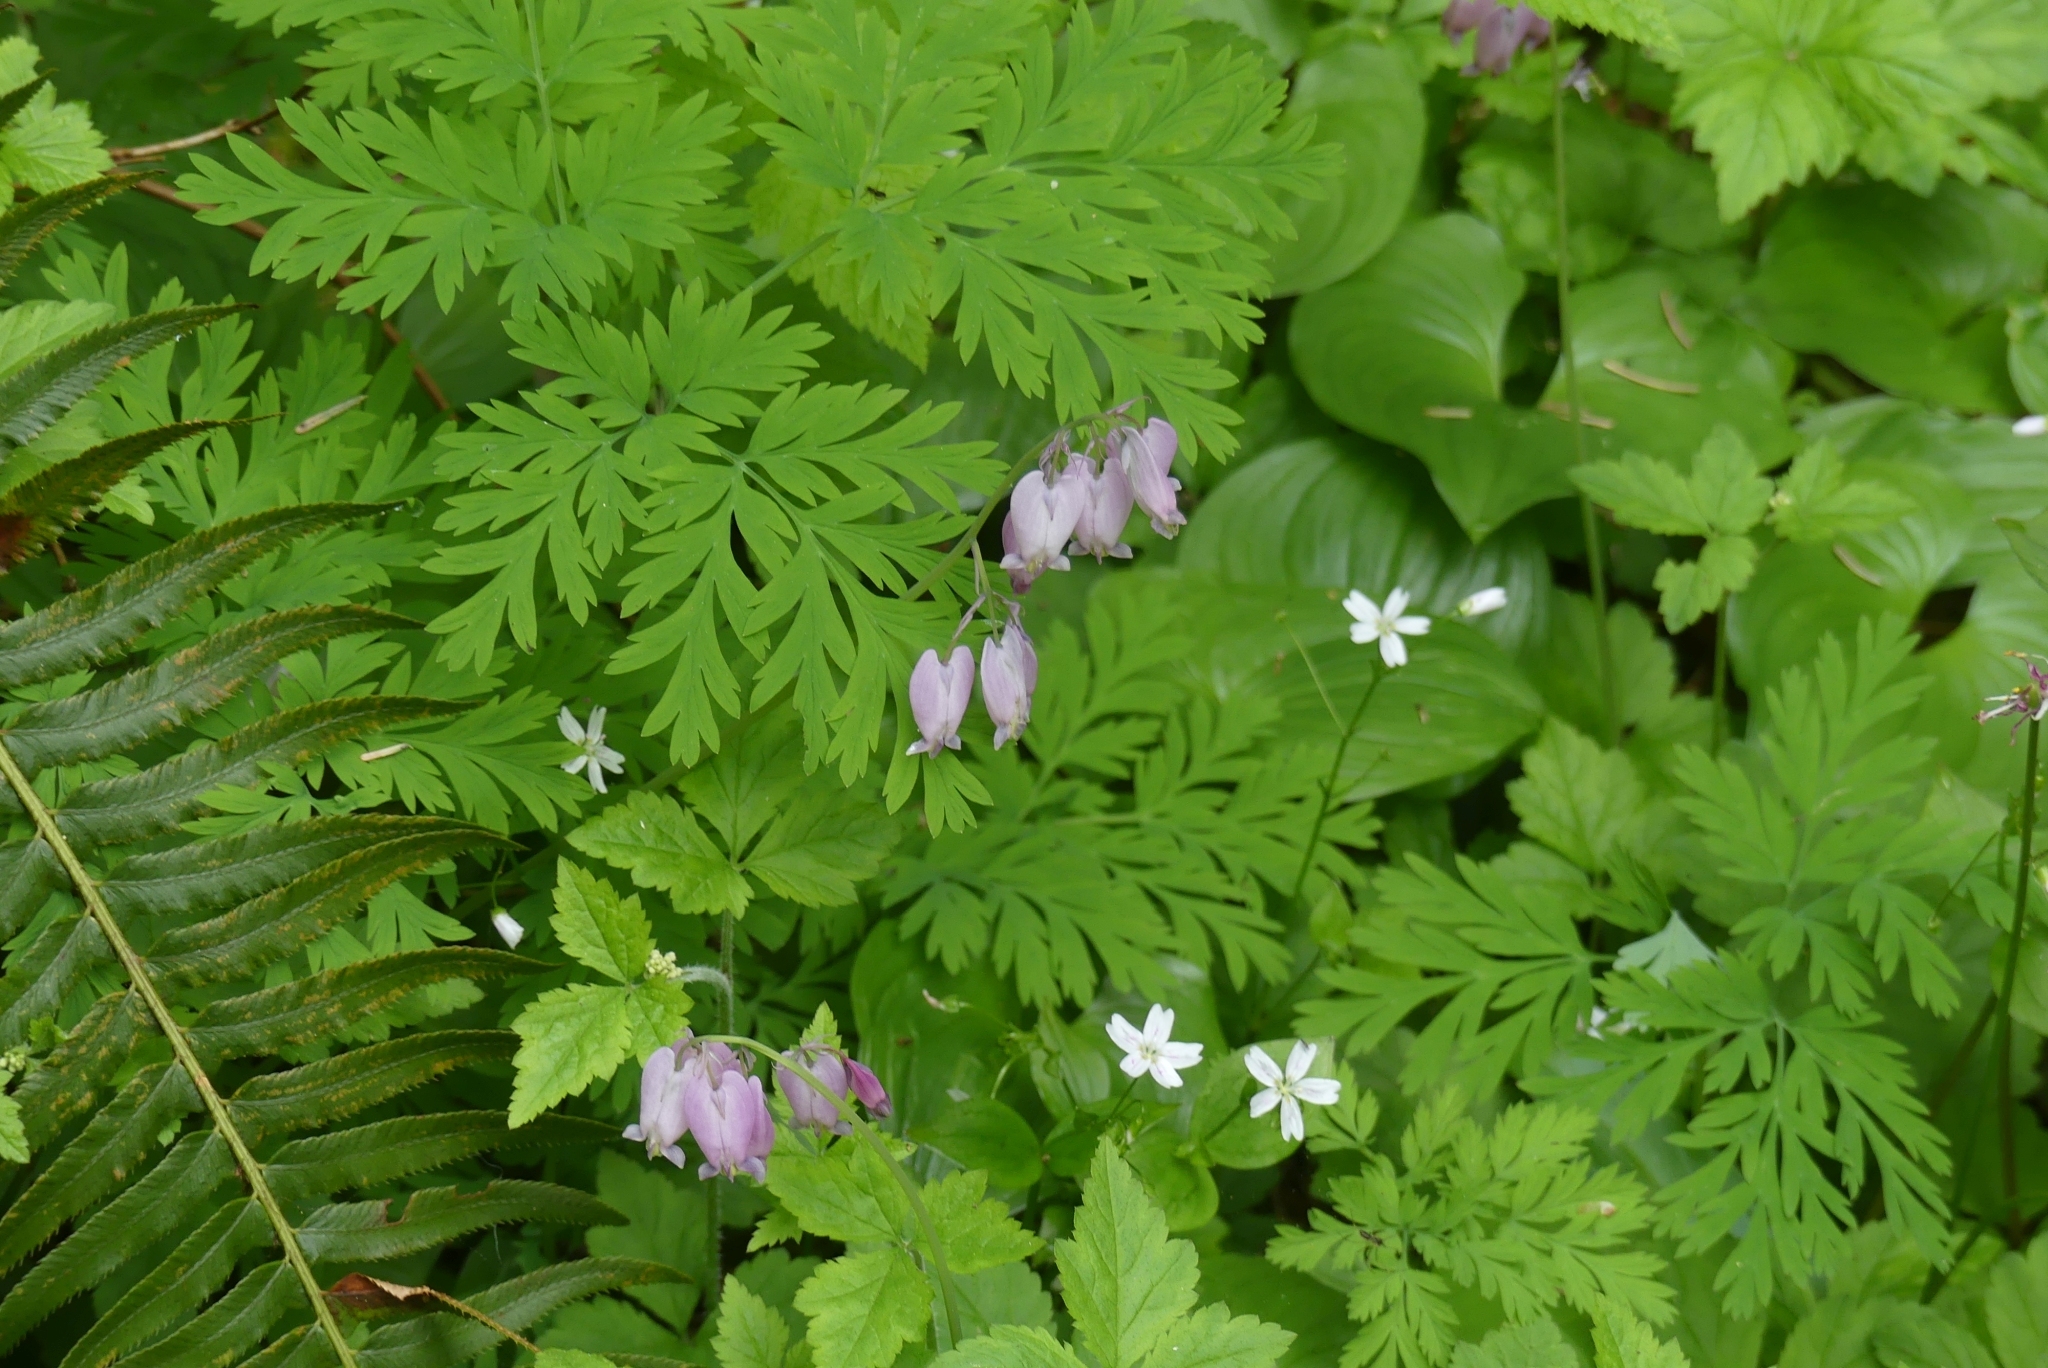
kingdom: Plantae
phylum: Tracheophyta
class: Magnoliopsida
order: Ranunculales
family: Papaveraceae
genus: Dicentra
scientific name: Dicentra formosa
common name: Bleeding-heart
